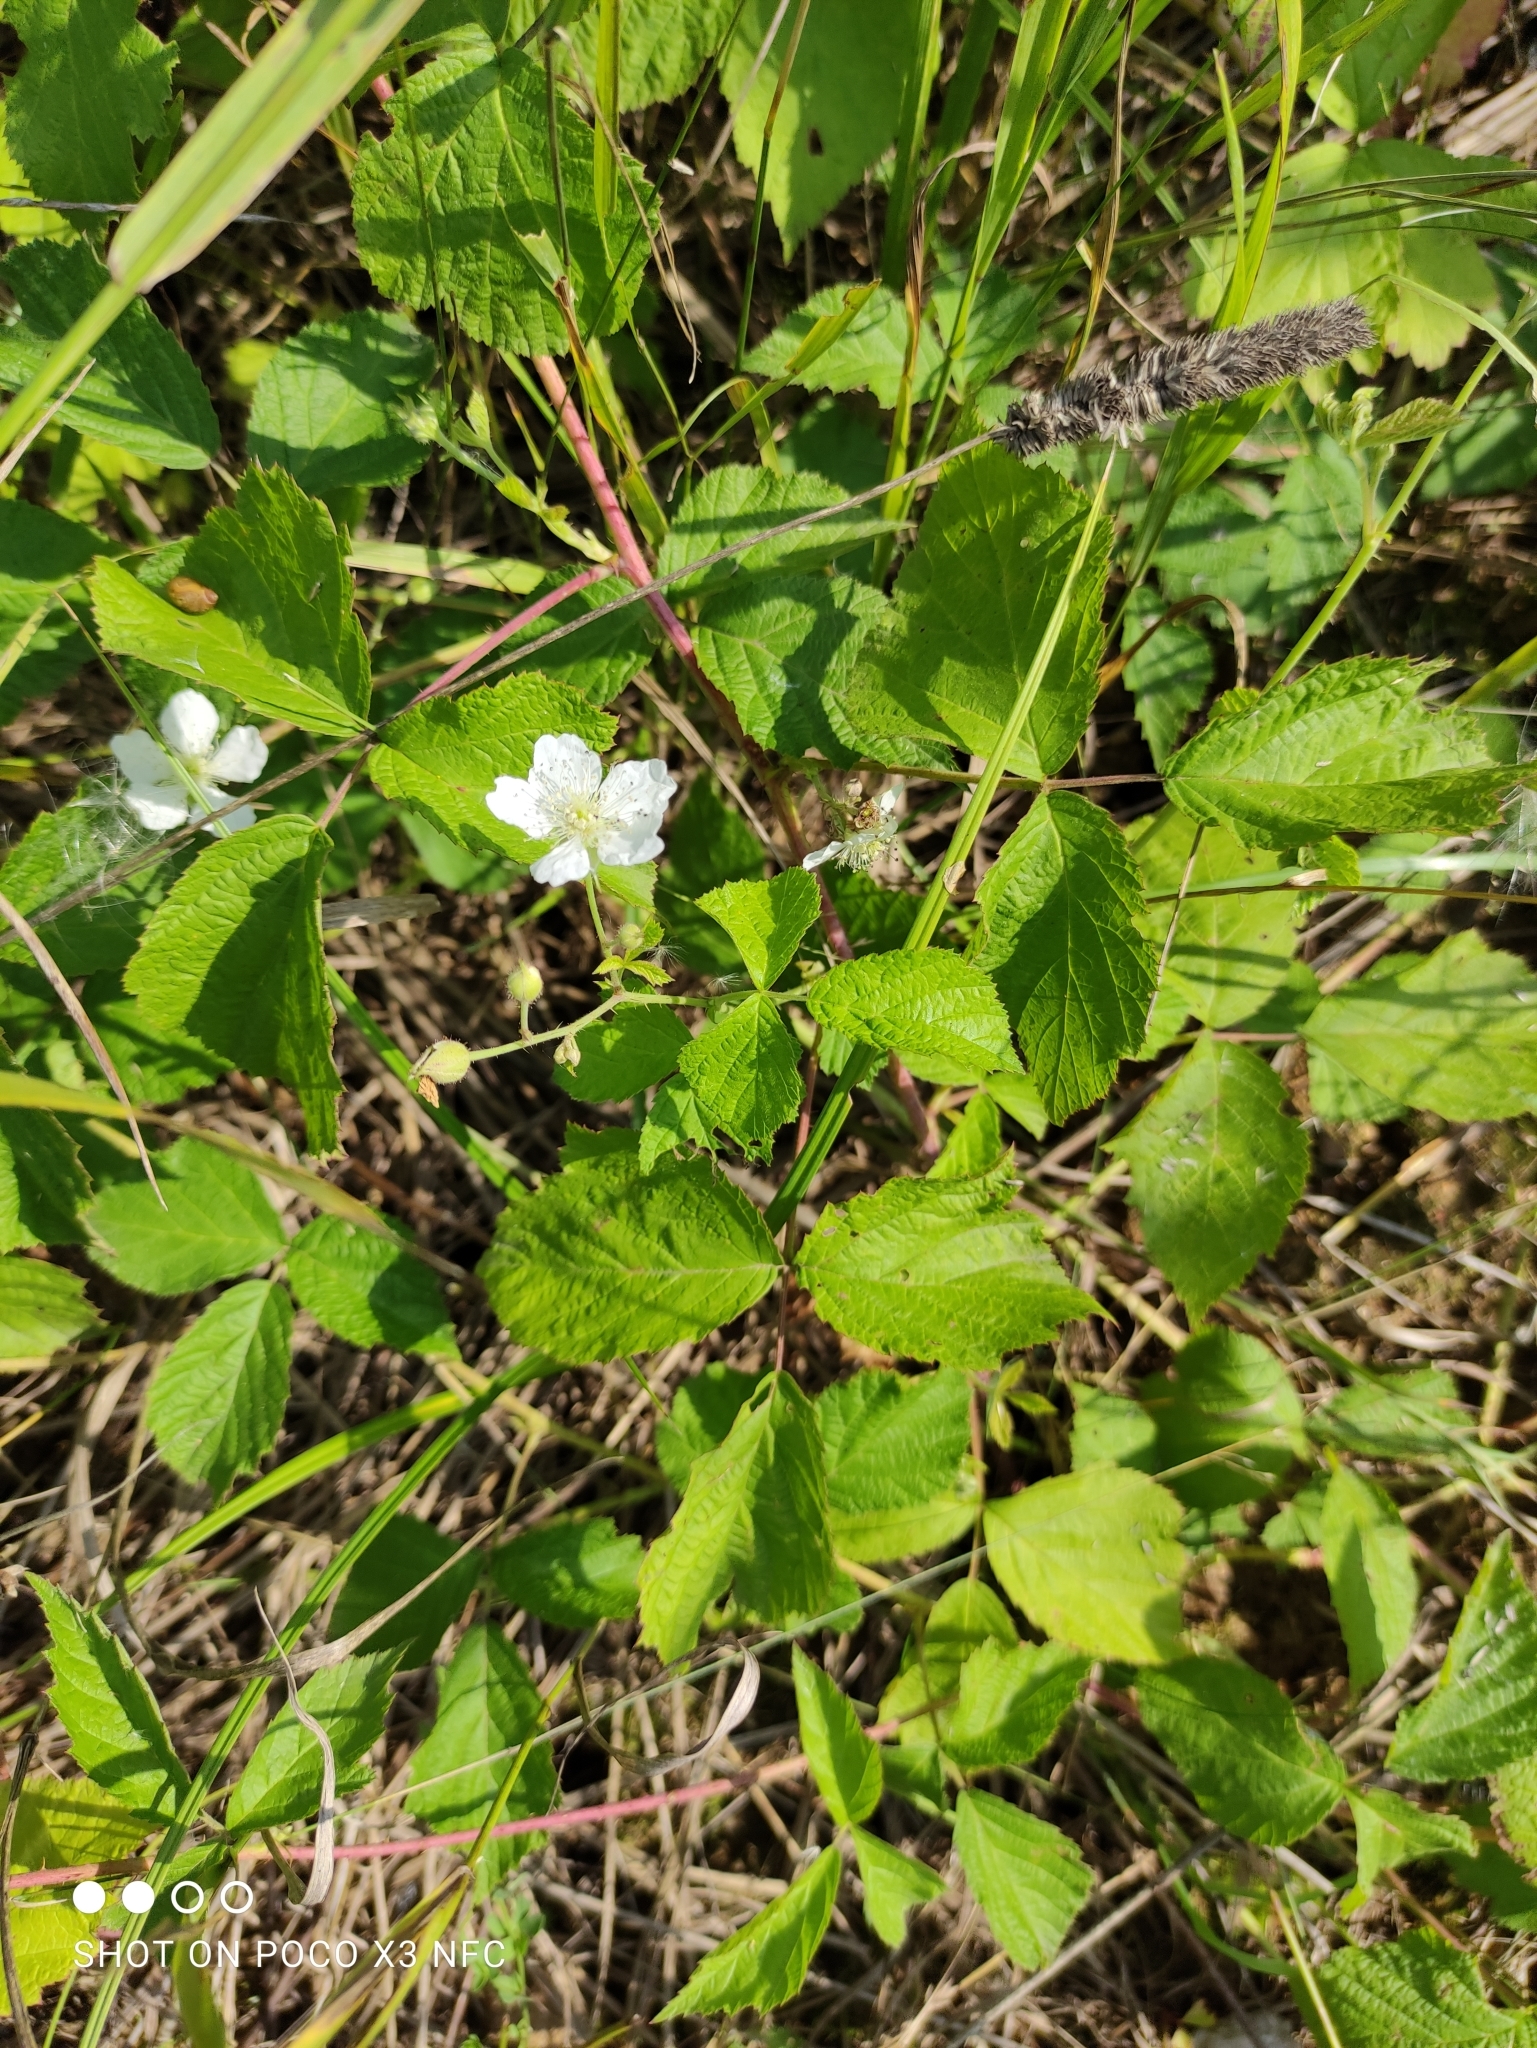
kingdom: Plantae
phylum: Tracheophyta
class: Magnoliopsida
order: Rosales
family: Rosaceae
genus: Rubus
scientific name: Rubus caesius
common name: Dewberry
